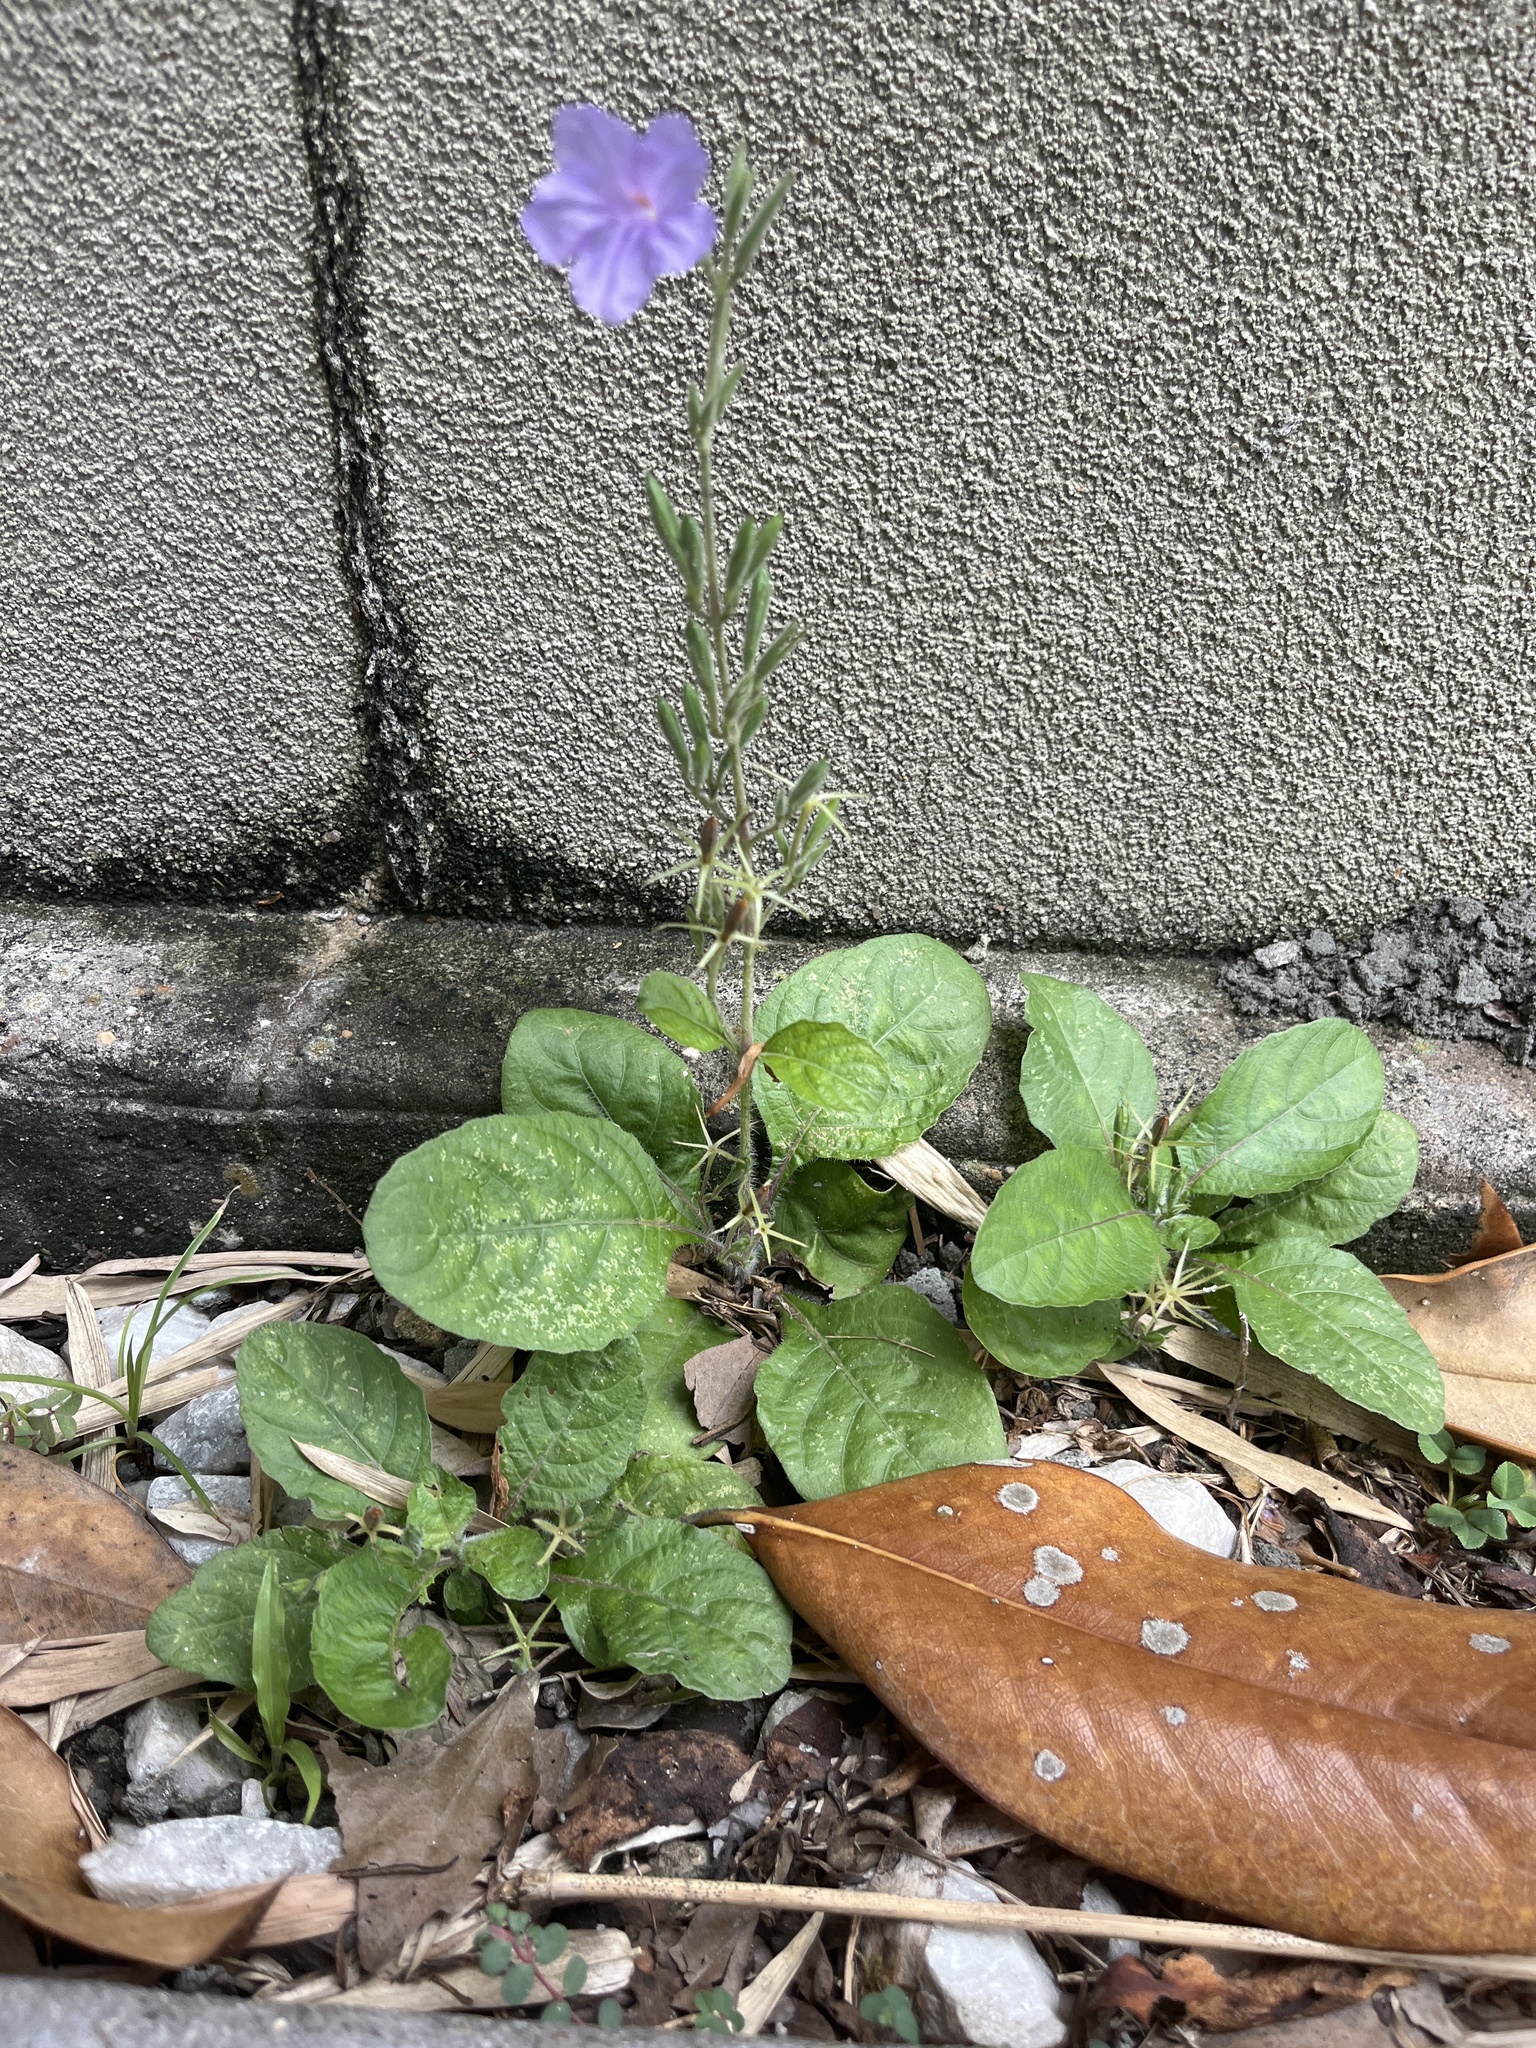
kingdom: Plantae
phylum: Tracheophyta
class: Magnoliopsida
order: Lamiales
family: Acanthaceae
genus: Ruellia
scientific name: Ruellia ciliatiflora
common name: Hairyflower wild petunia
